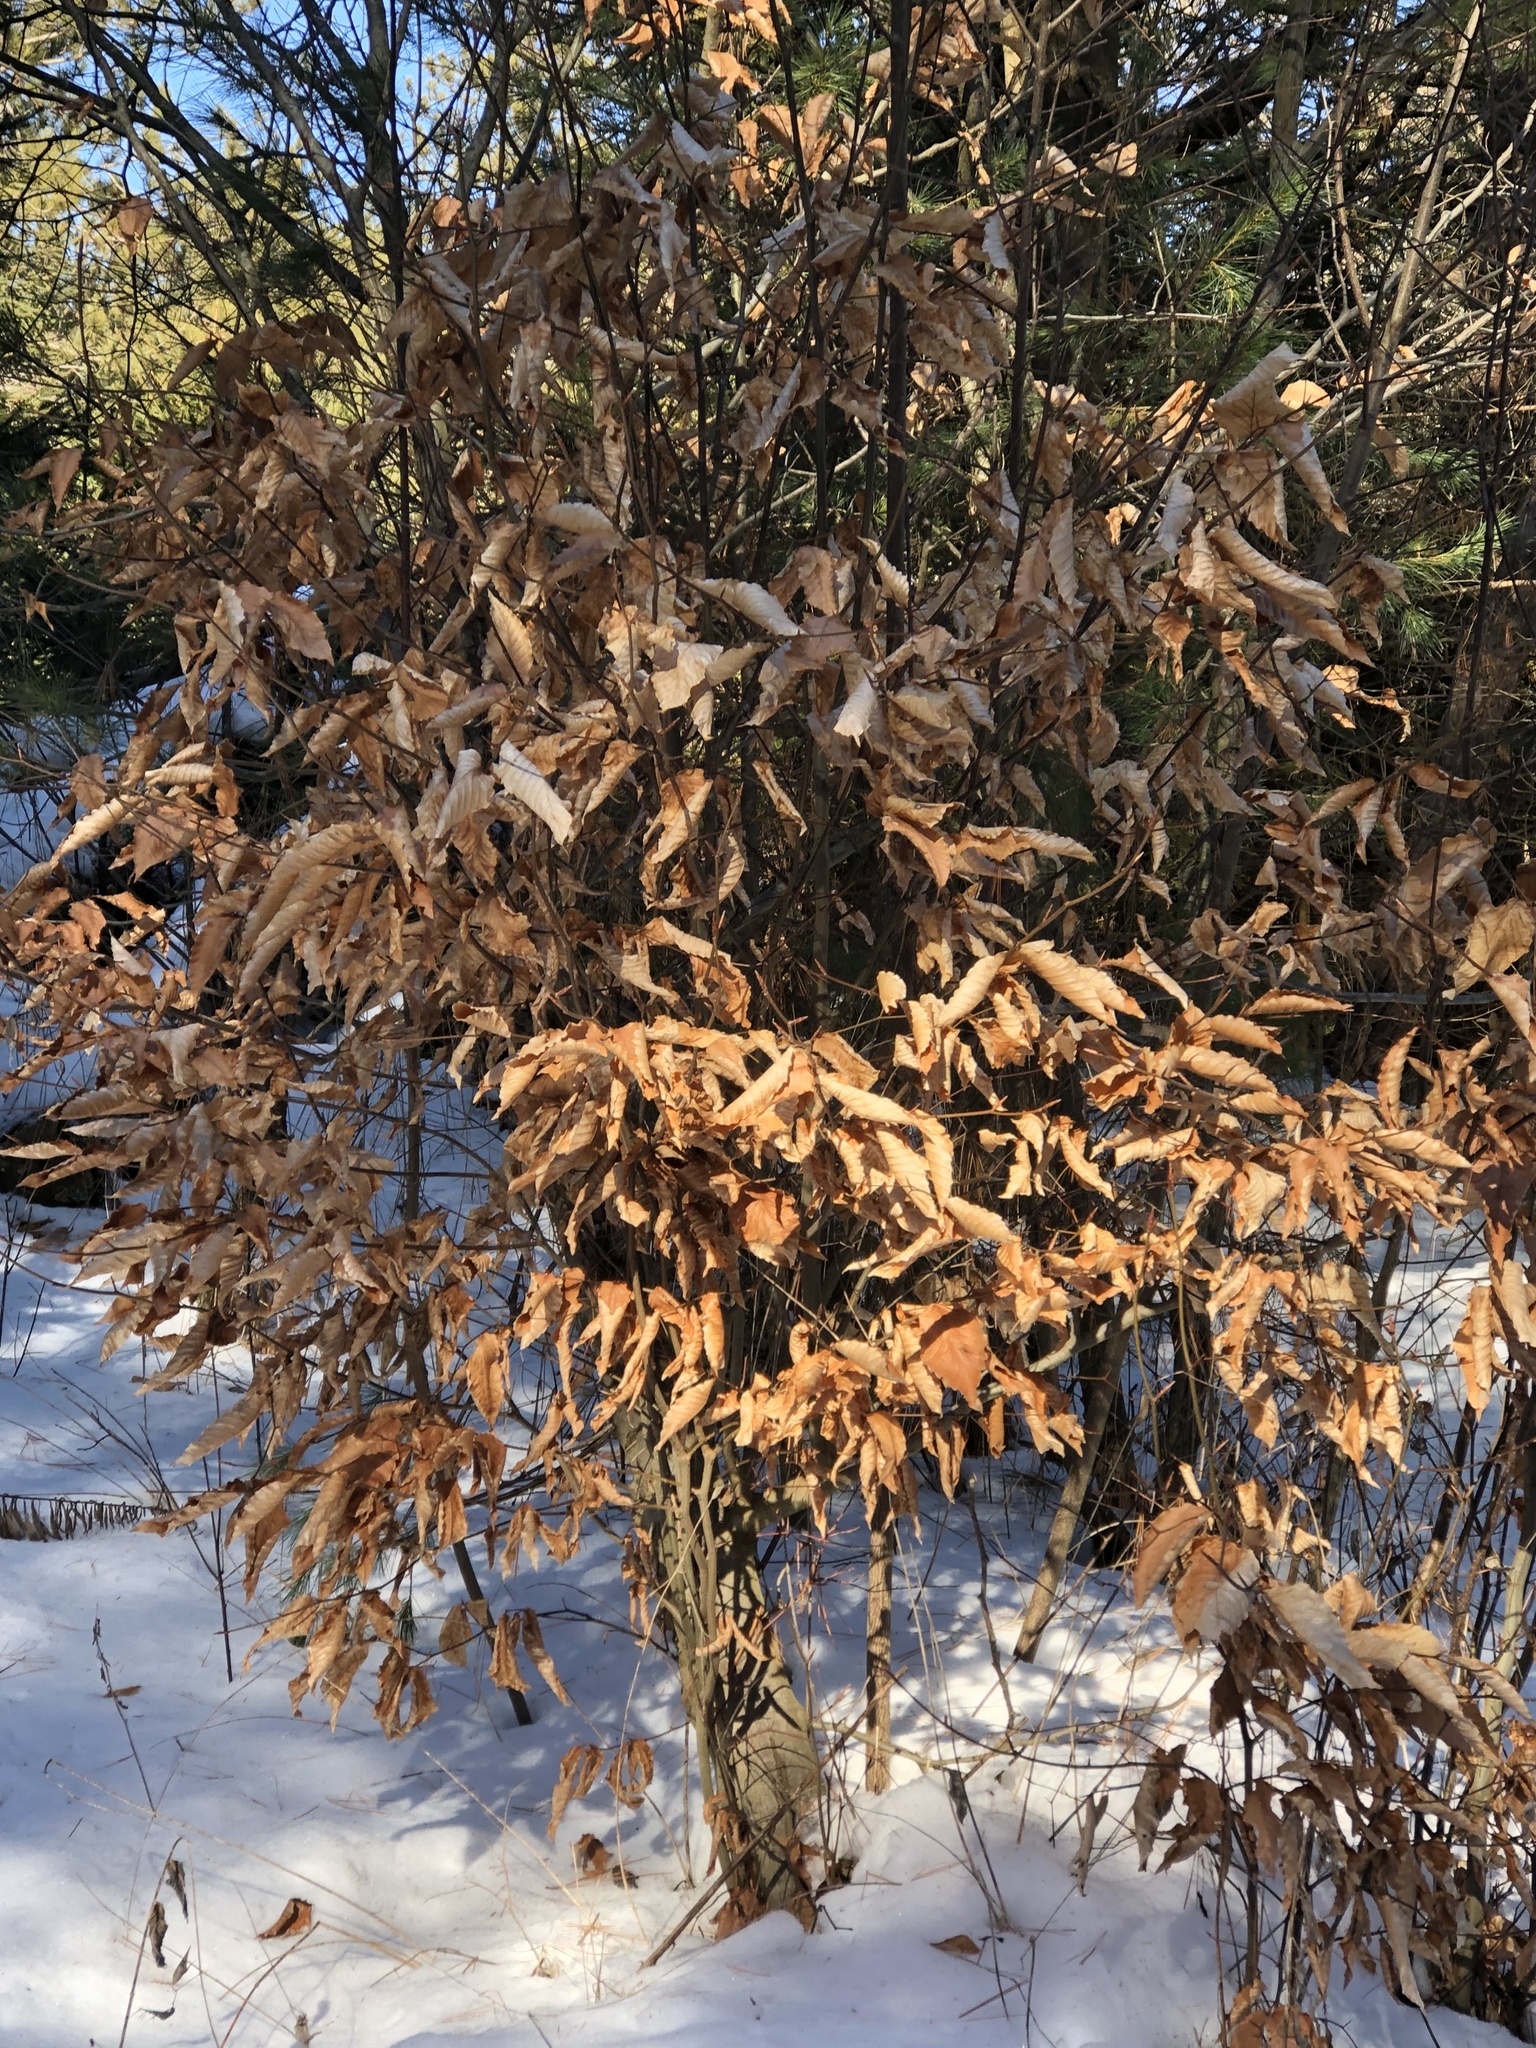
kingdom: Plantae
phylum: Tracheophyta
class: Magnoliopsida
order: Fagales
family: Fagaceae
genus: Fagus
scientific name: Fagus grandifolia
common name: American beech
